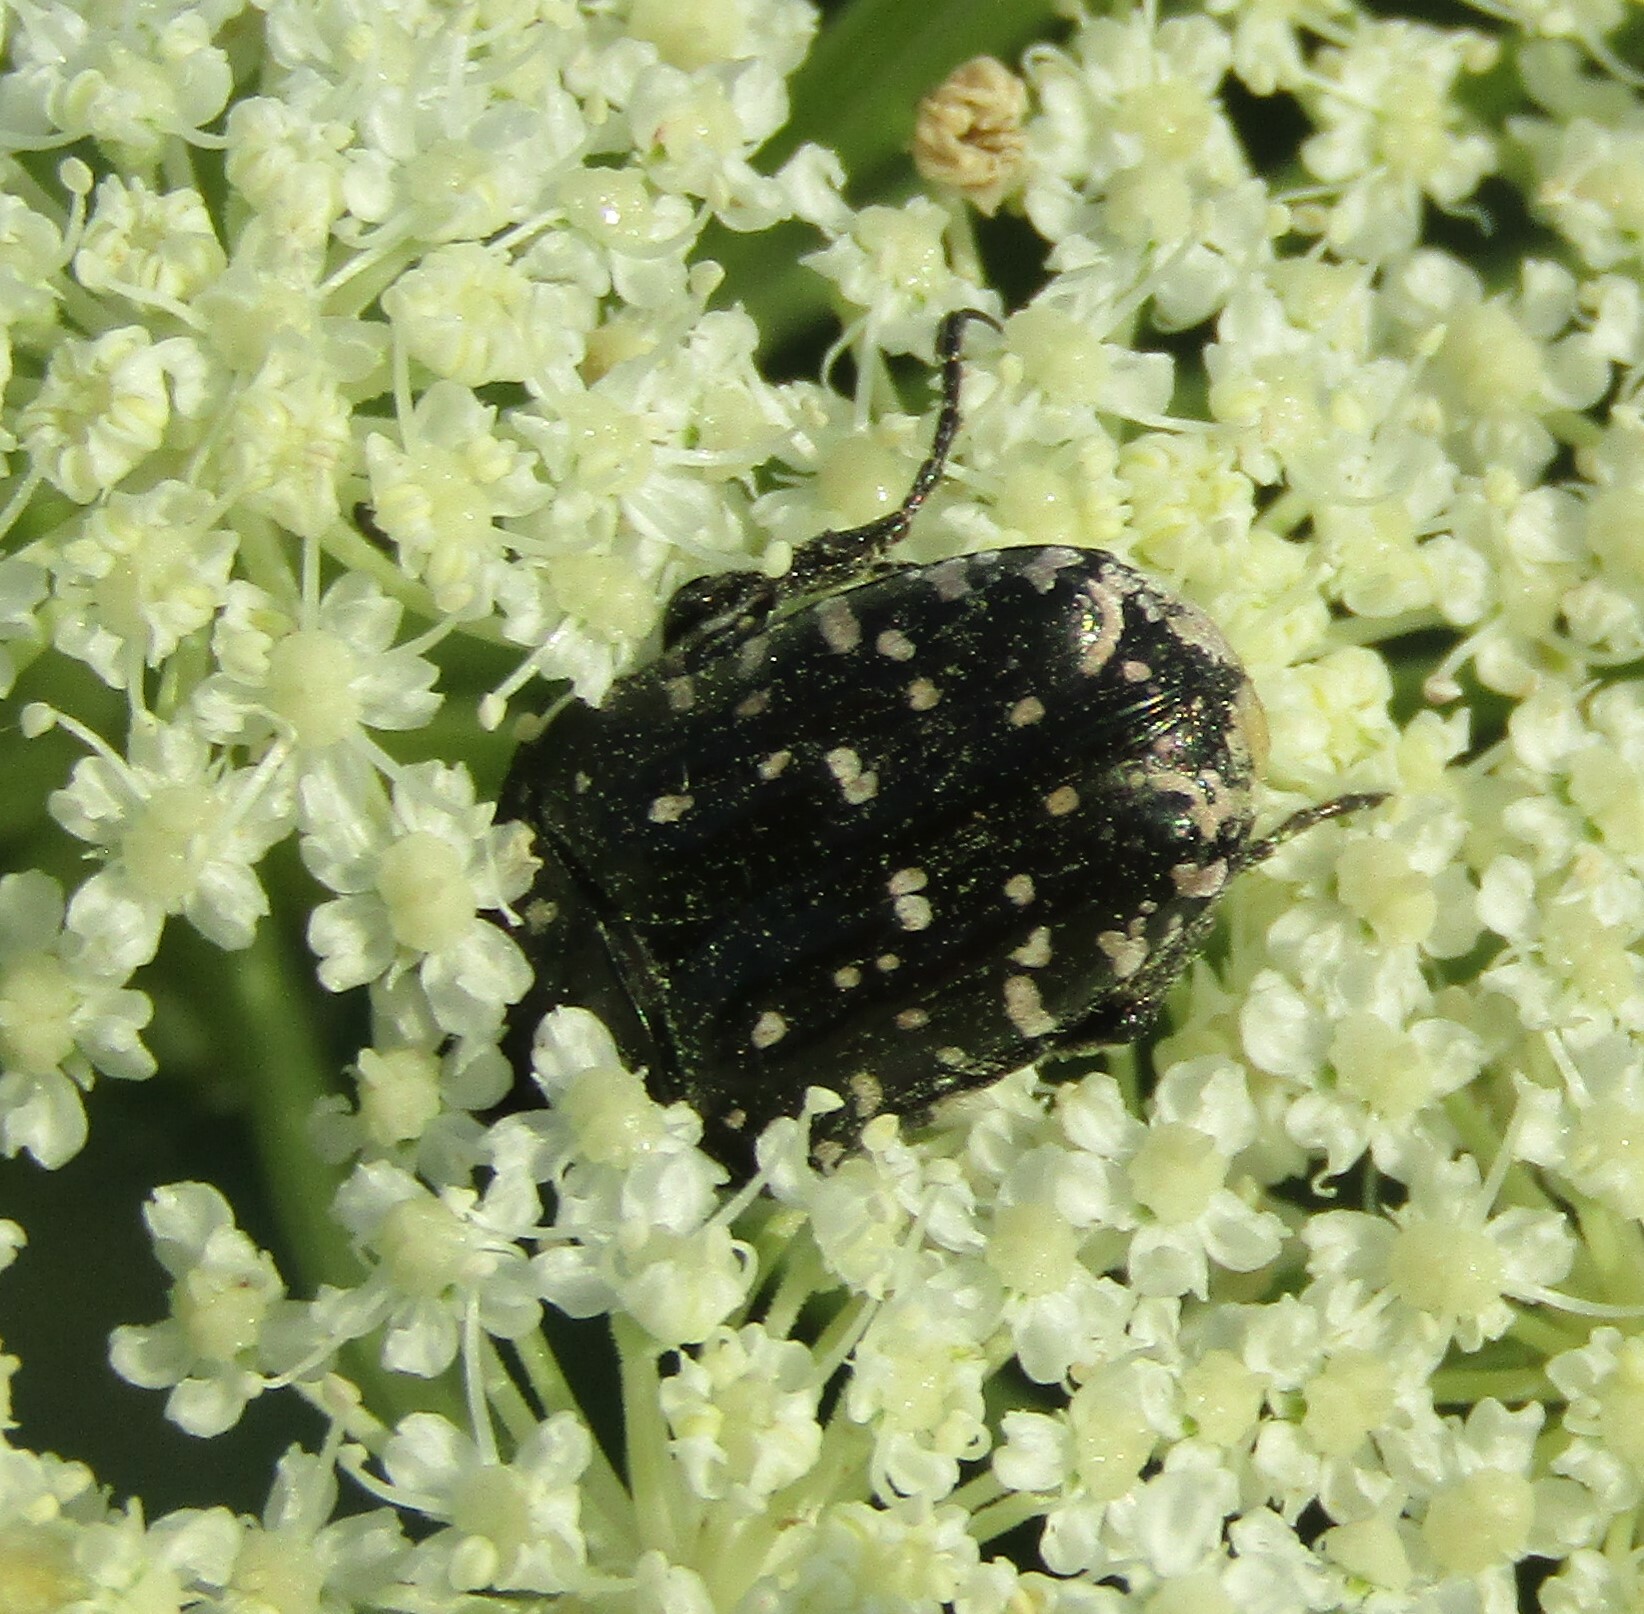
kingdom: Animalia
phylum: Arthropoda
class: Insecta
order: Coleoptera
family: Scarabaeidae
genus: Oxythyrea
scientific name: Oxythyrea funesta
